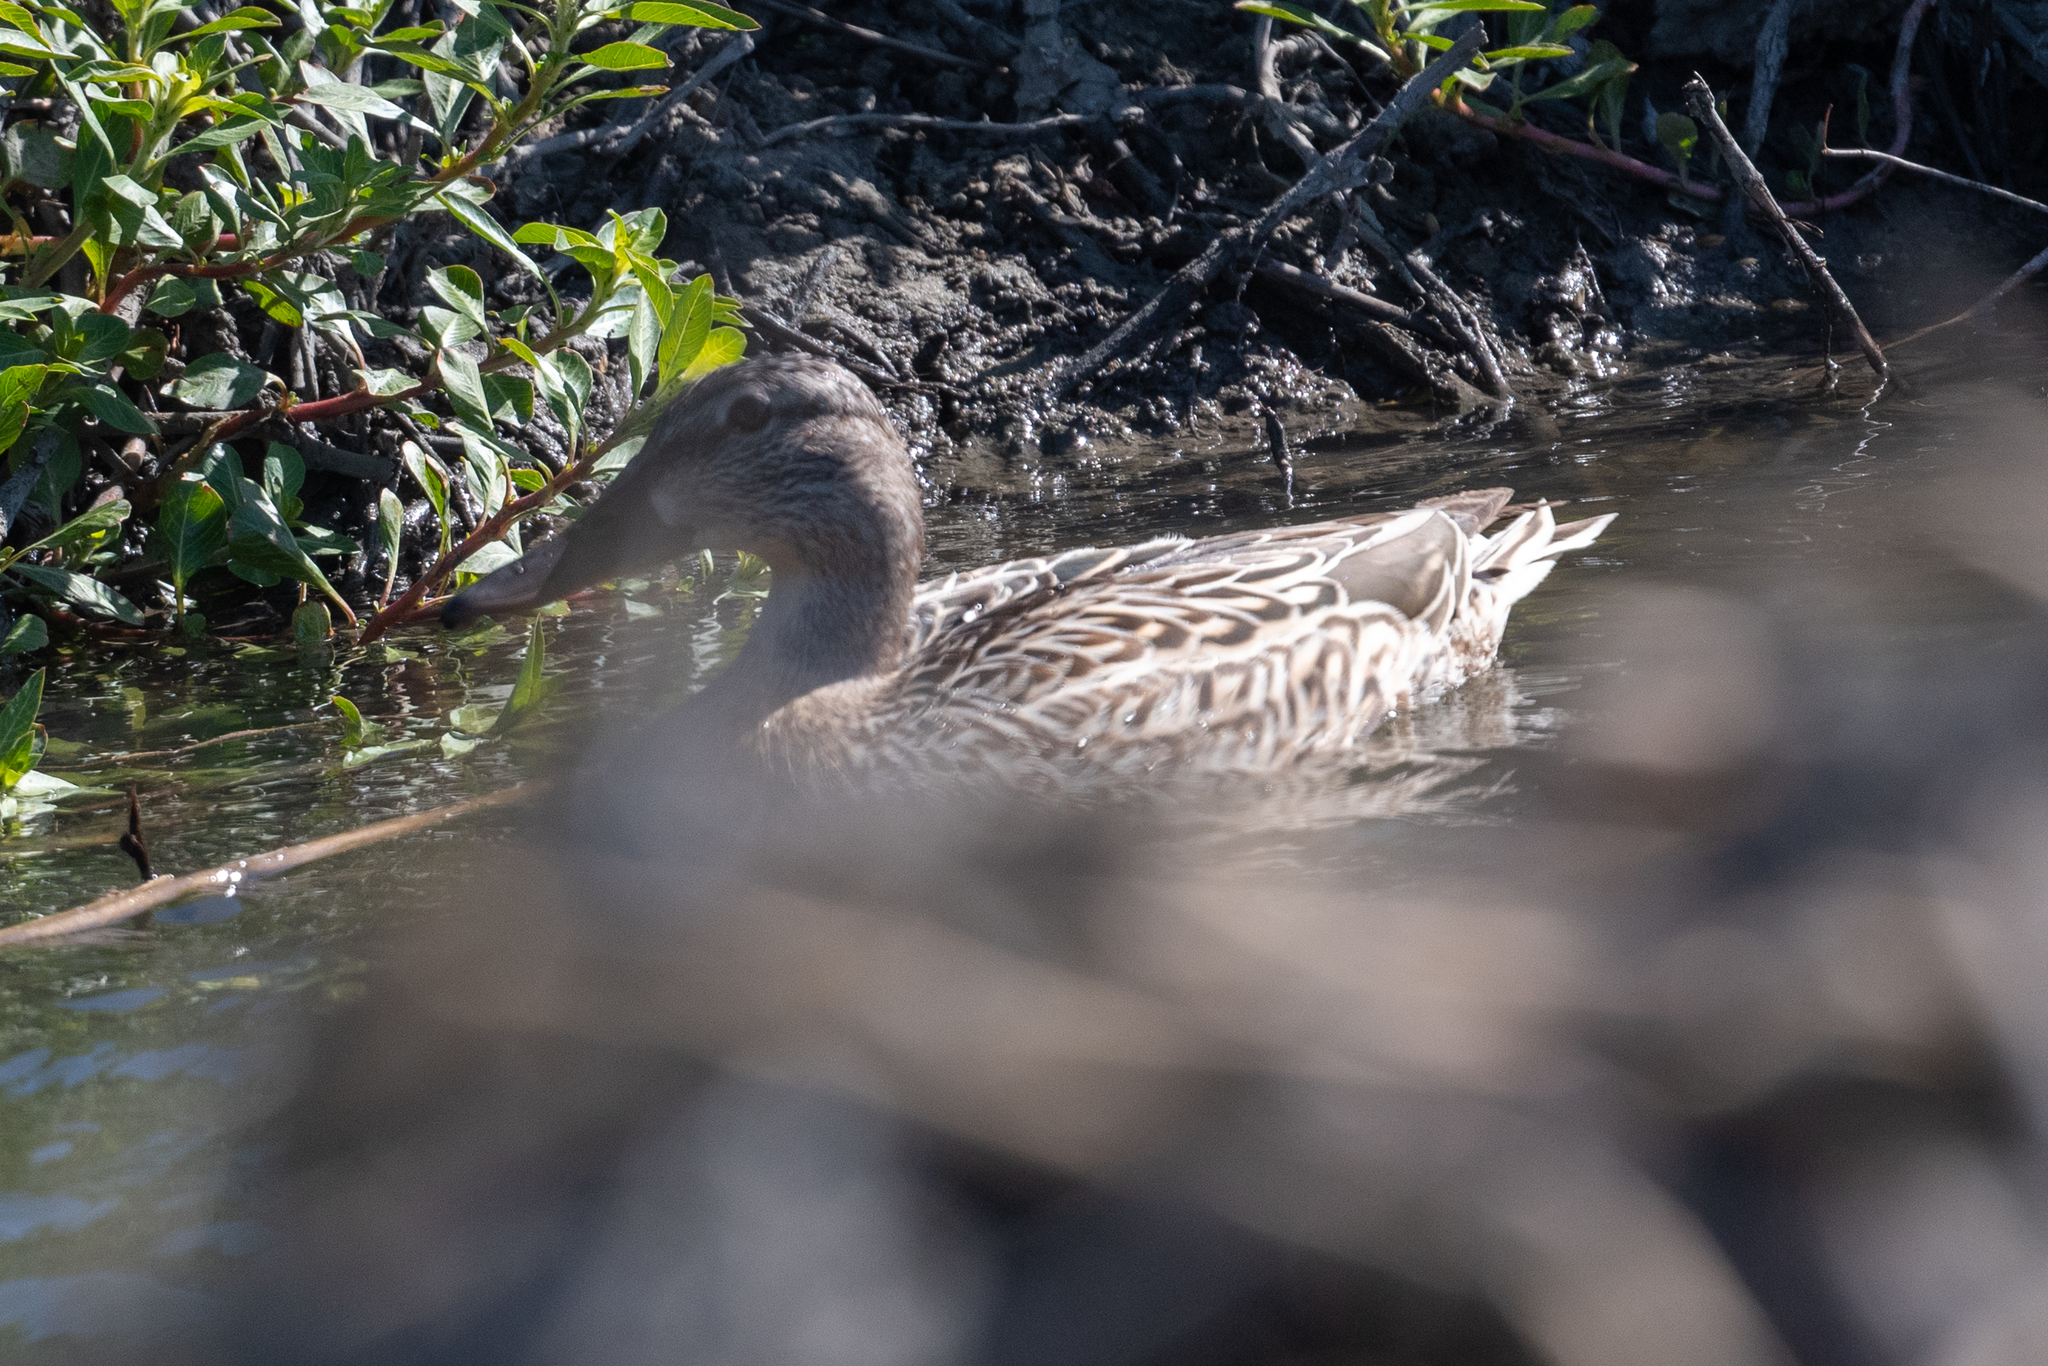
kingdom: Animalia
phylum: Chordata
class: Aves
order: Anseriformes
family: Anatidae
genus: Anas
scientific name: Anas platyrhynchos
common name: Mallard
